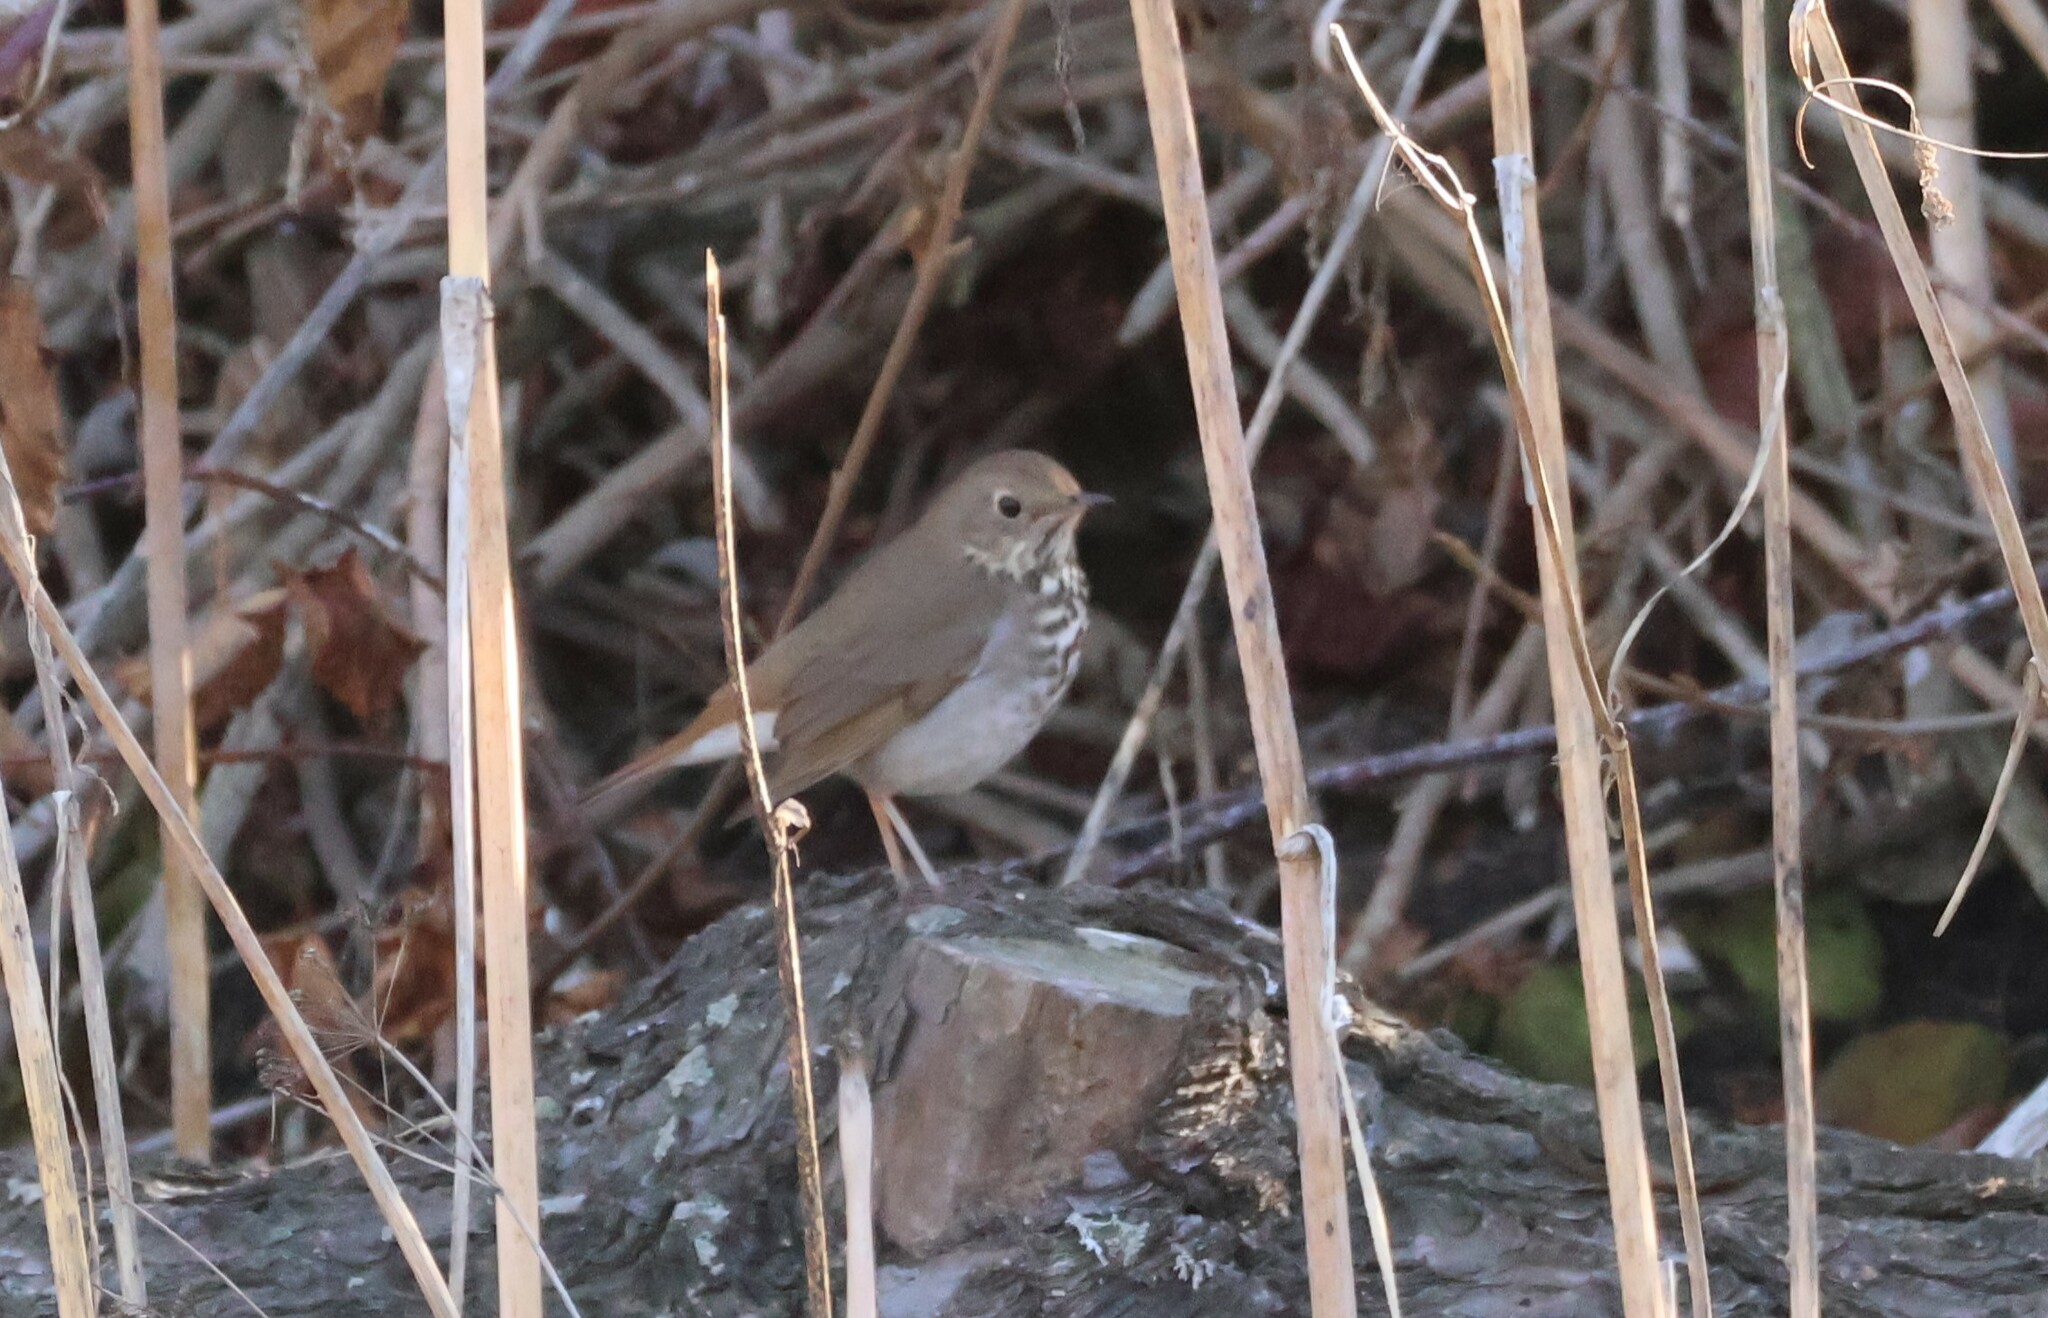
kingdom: Animalia
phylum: Chordata
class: Aves
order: Passeriformes
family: Turdidae
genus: Catharus
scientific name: Catharus guttatus
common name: Hermit thrush
